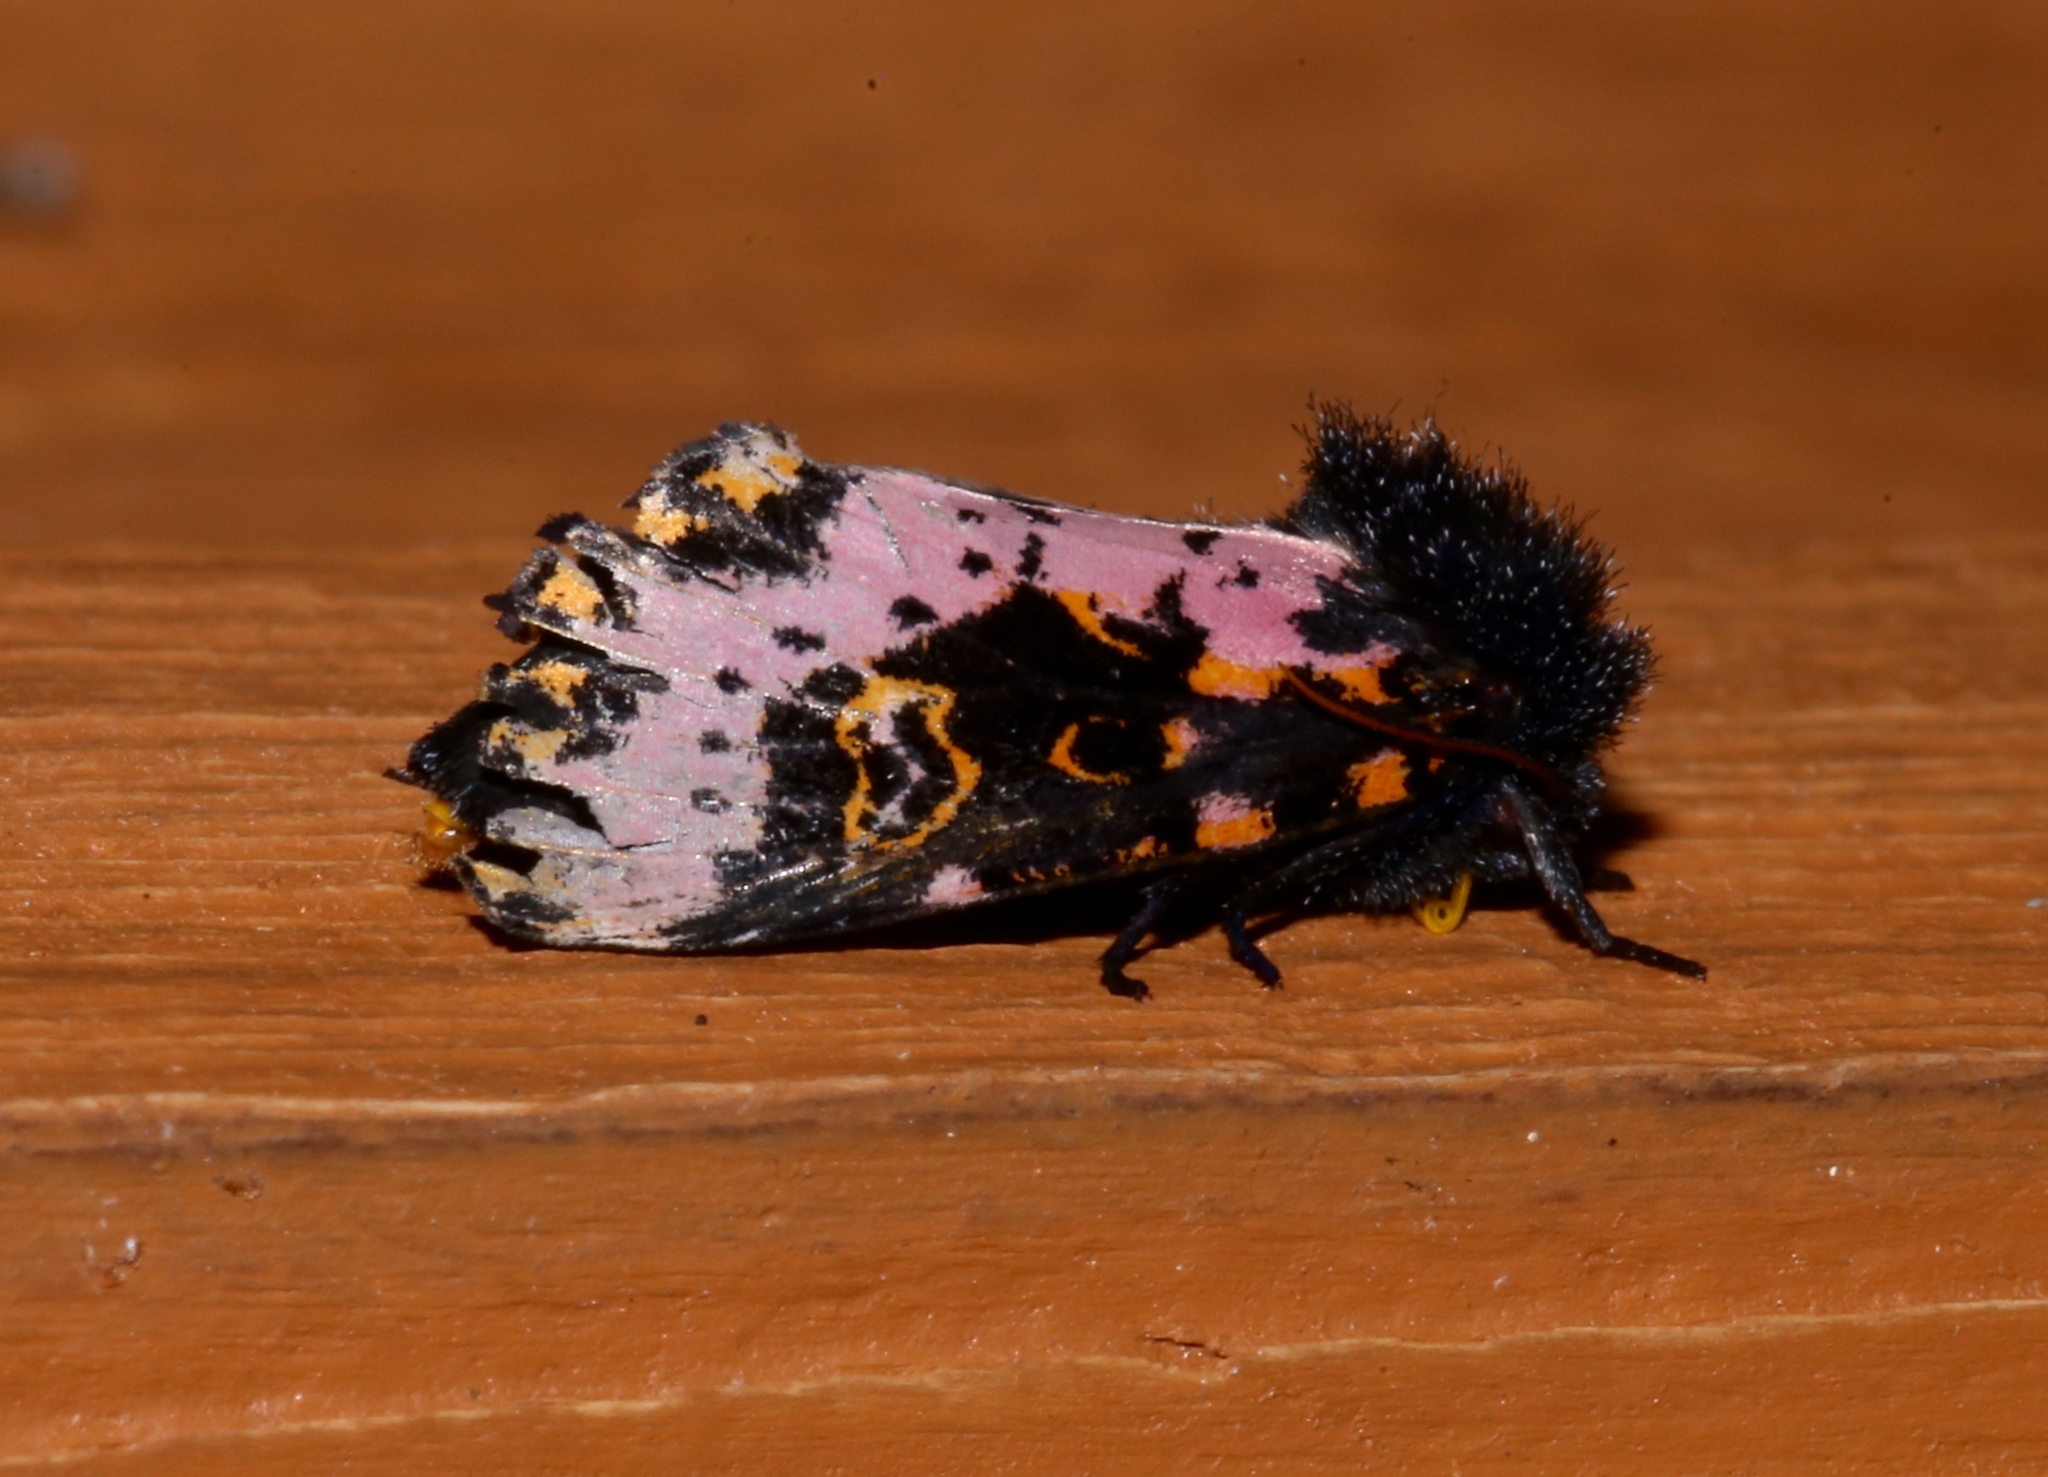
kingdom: Animalia
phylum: Arthropoda
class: Insecta
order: Lepidoptera
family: Noctuidae
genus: Xanthopastis
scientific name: Xanthopastis regnatrix
